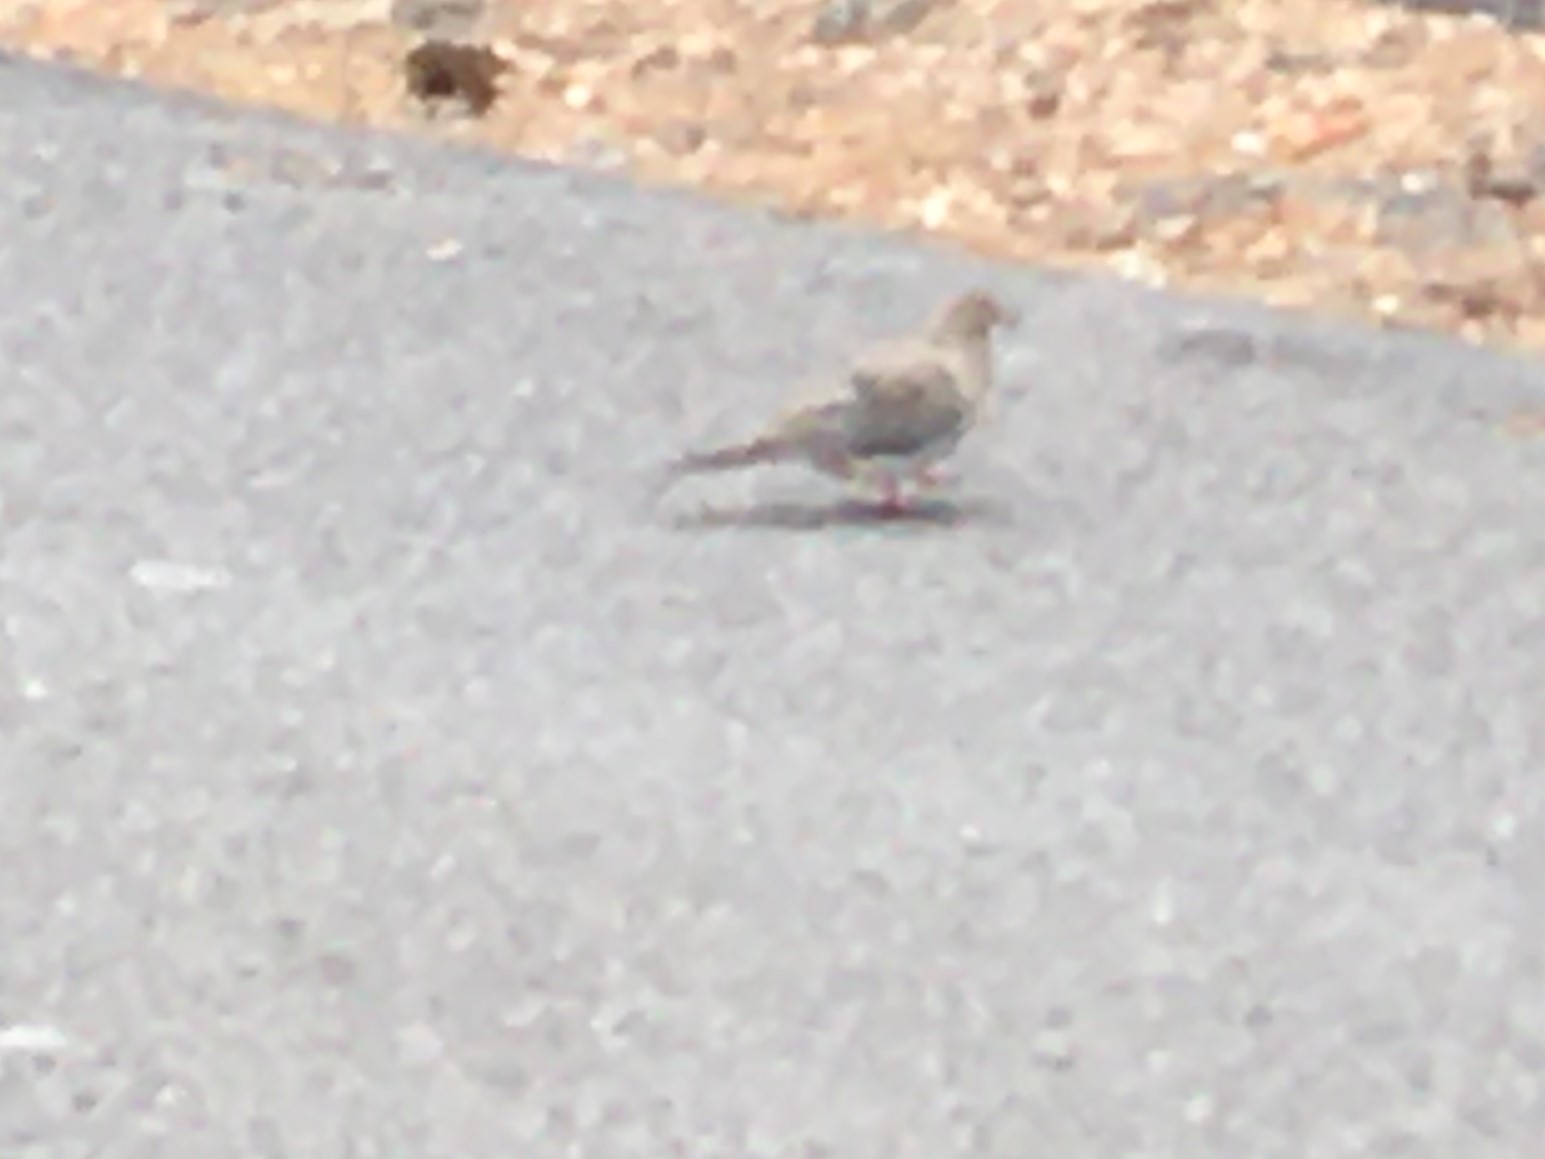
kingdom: Animalia
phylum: Chordata
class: Aves
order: Columbiformes
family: Columbidae
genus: Zenaida
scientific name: Zenaida macroura
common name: Mourning dove
